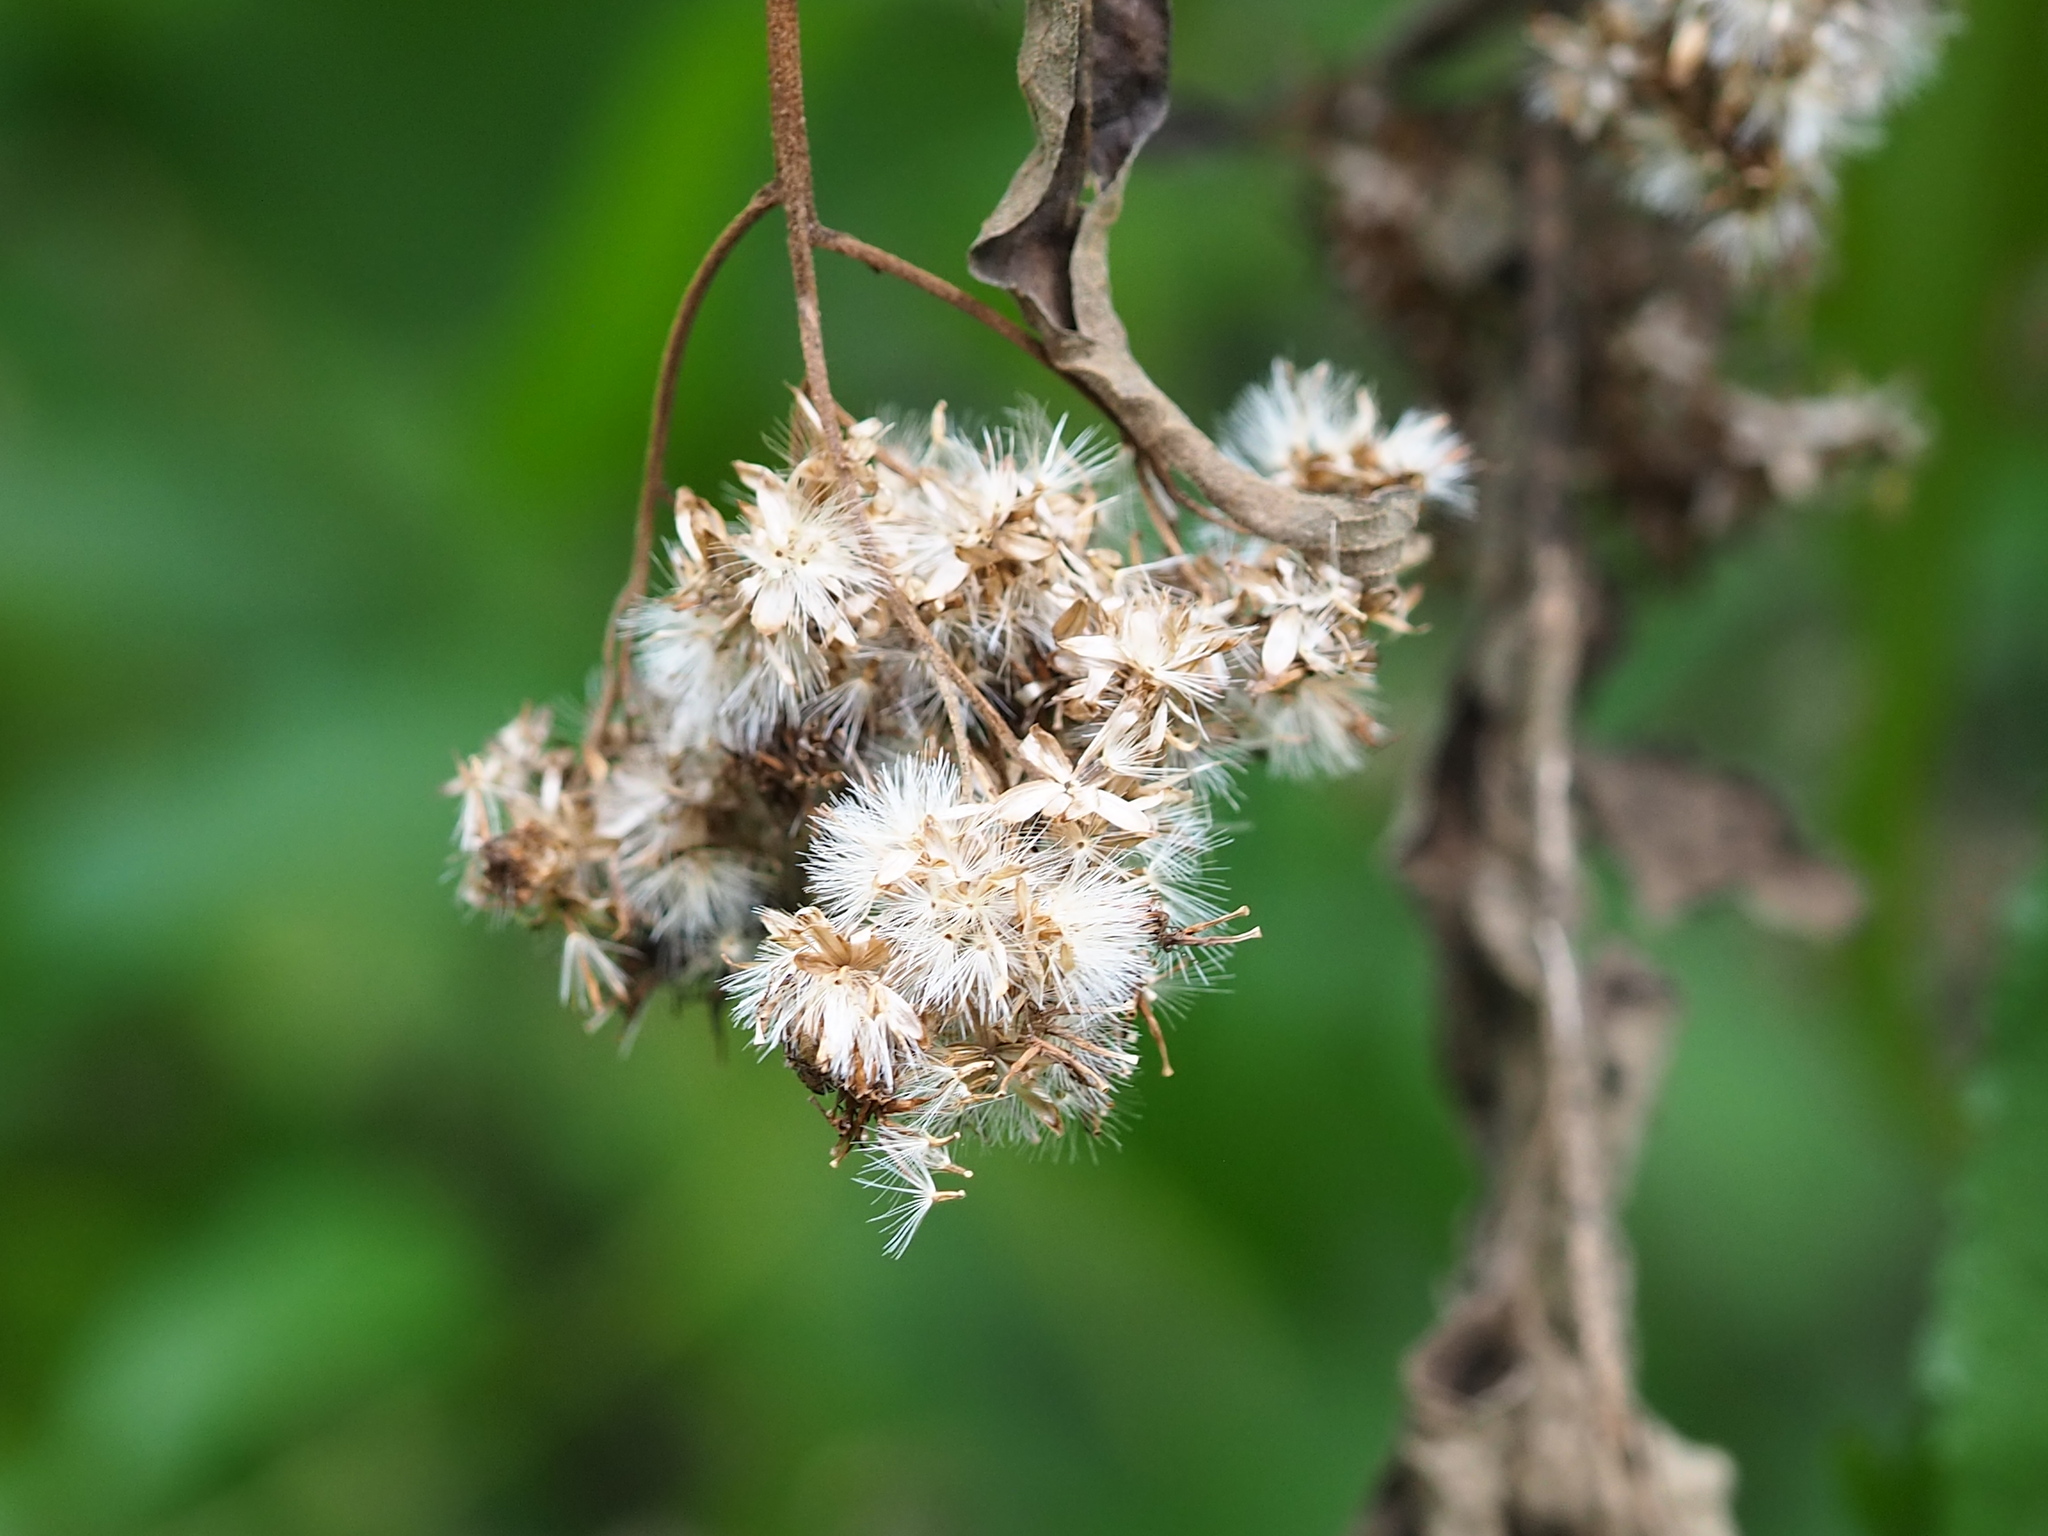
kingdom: Plantae
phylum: Tracheophyta
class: Magnoliopsida
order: Asterales
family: Asteraceae
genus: Austroeupatorium
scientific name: Austroeupatorium inulifolium
